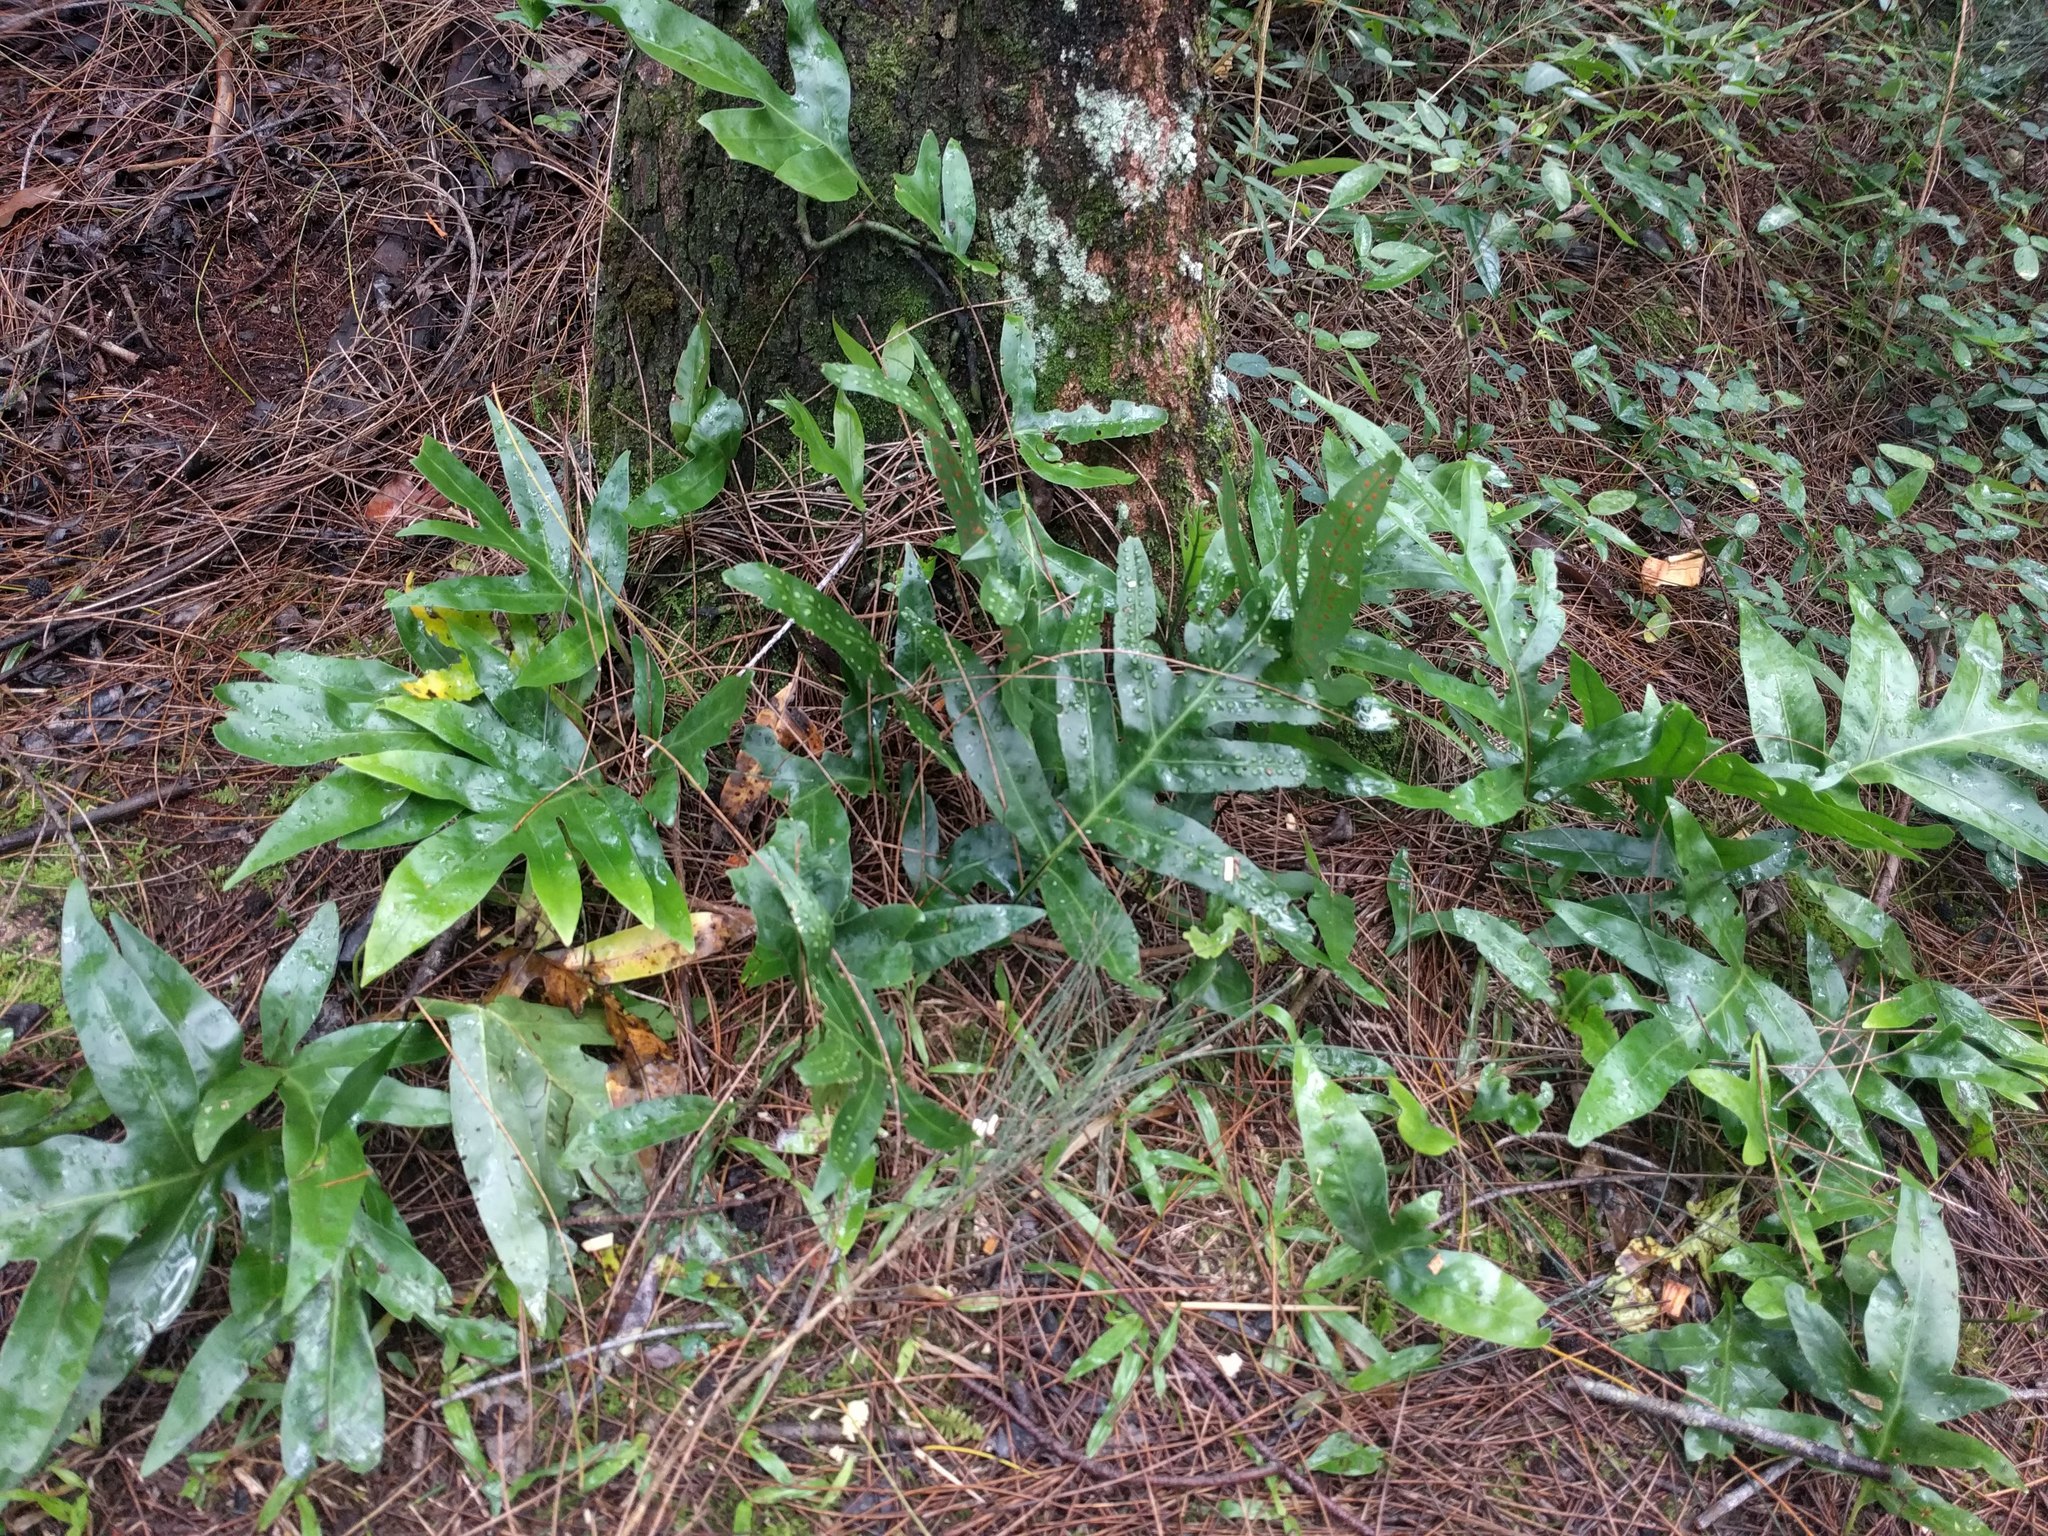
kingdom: Plantae
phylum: Tracheophyta
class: Polypodiopsida
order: Polypodiales
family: Polypodiaceae
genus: Microsorum
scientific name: Microsorum grossum
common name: Musk fern
